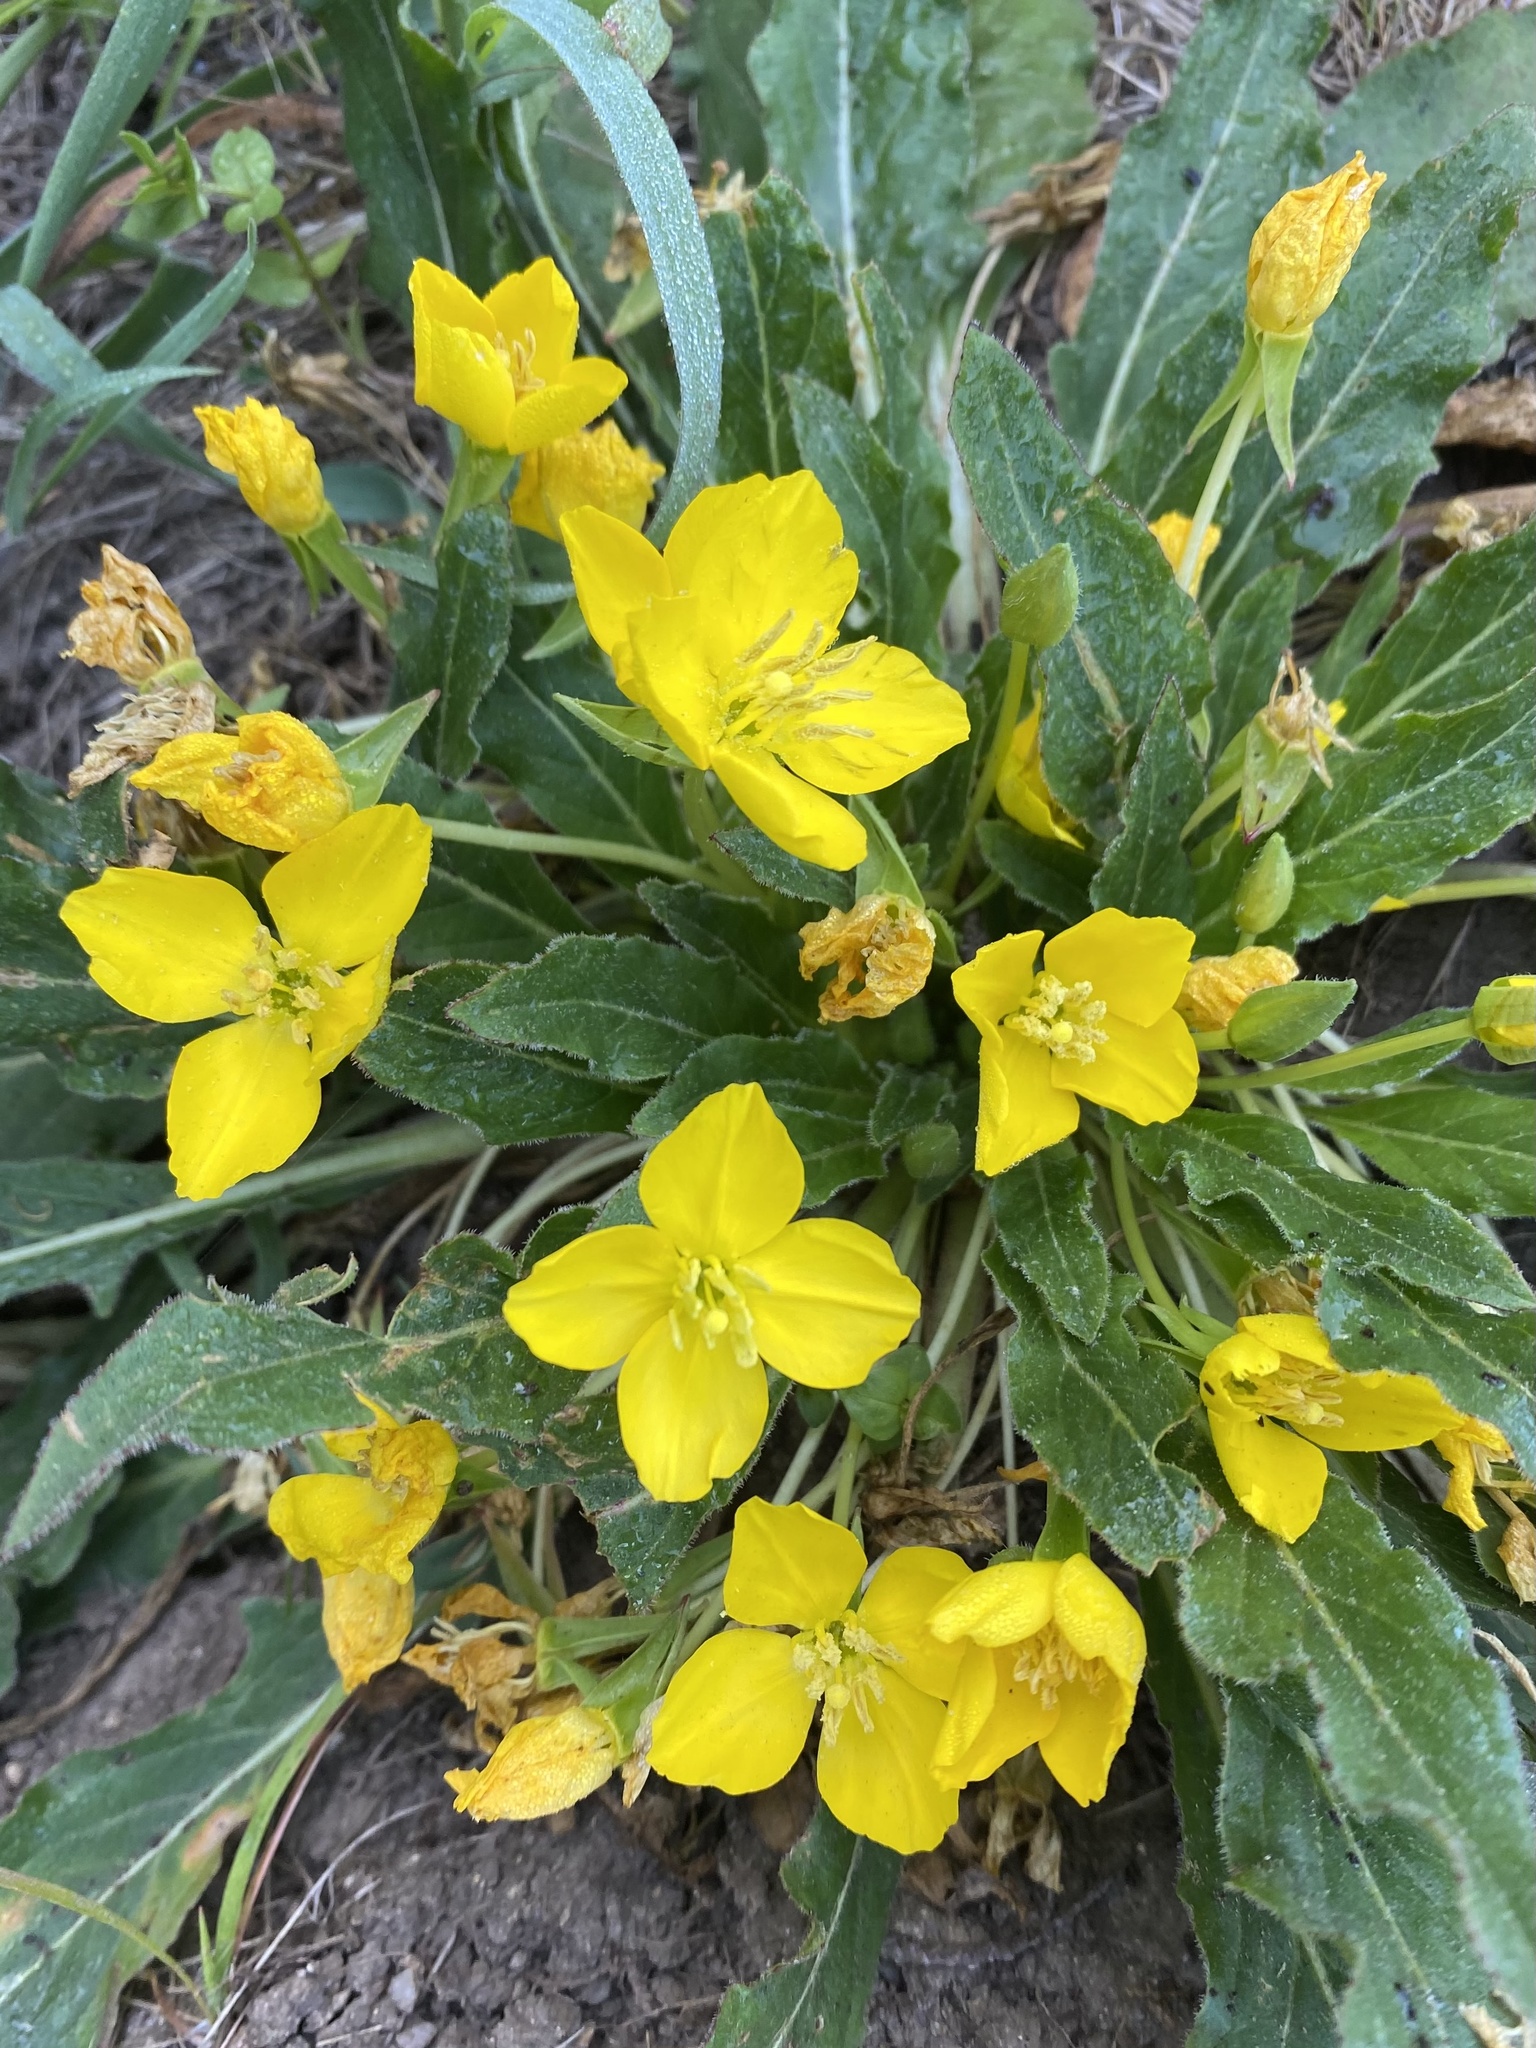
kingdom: Plantae
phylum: Tracheophyta
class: Magnoliopsida
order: Myrtales
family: Onagraceae
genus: Taraxia
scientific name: Taraxia ovata
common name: Goldeneggs
